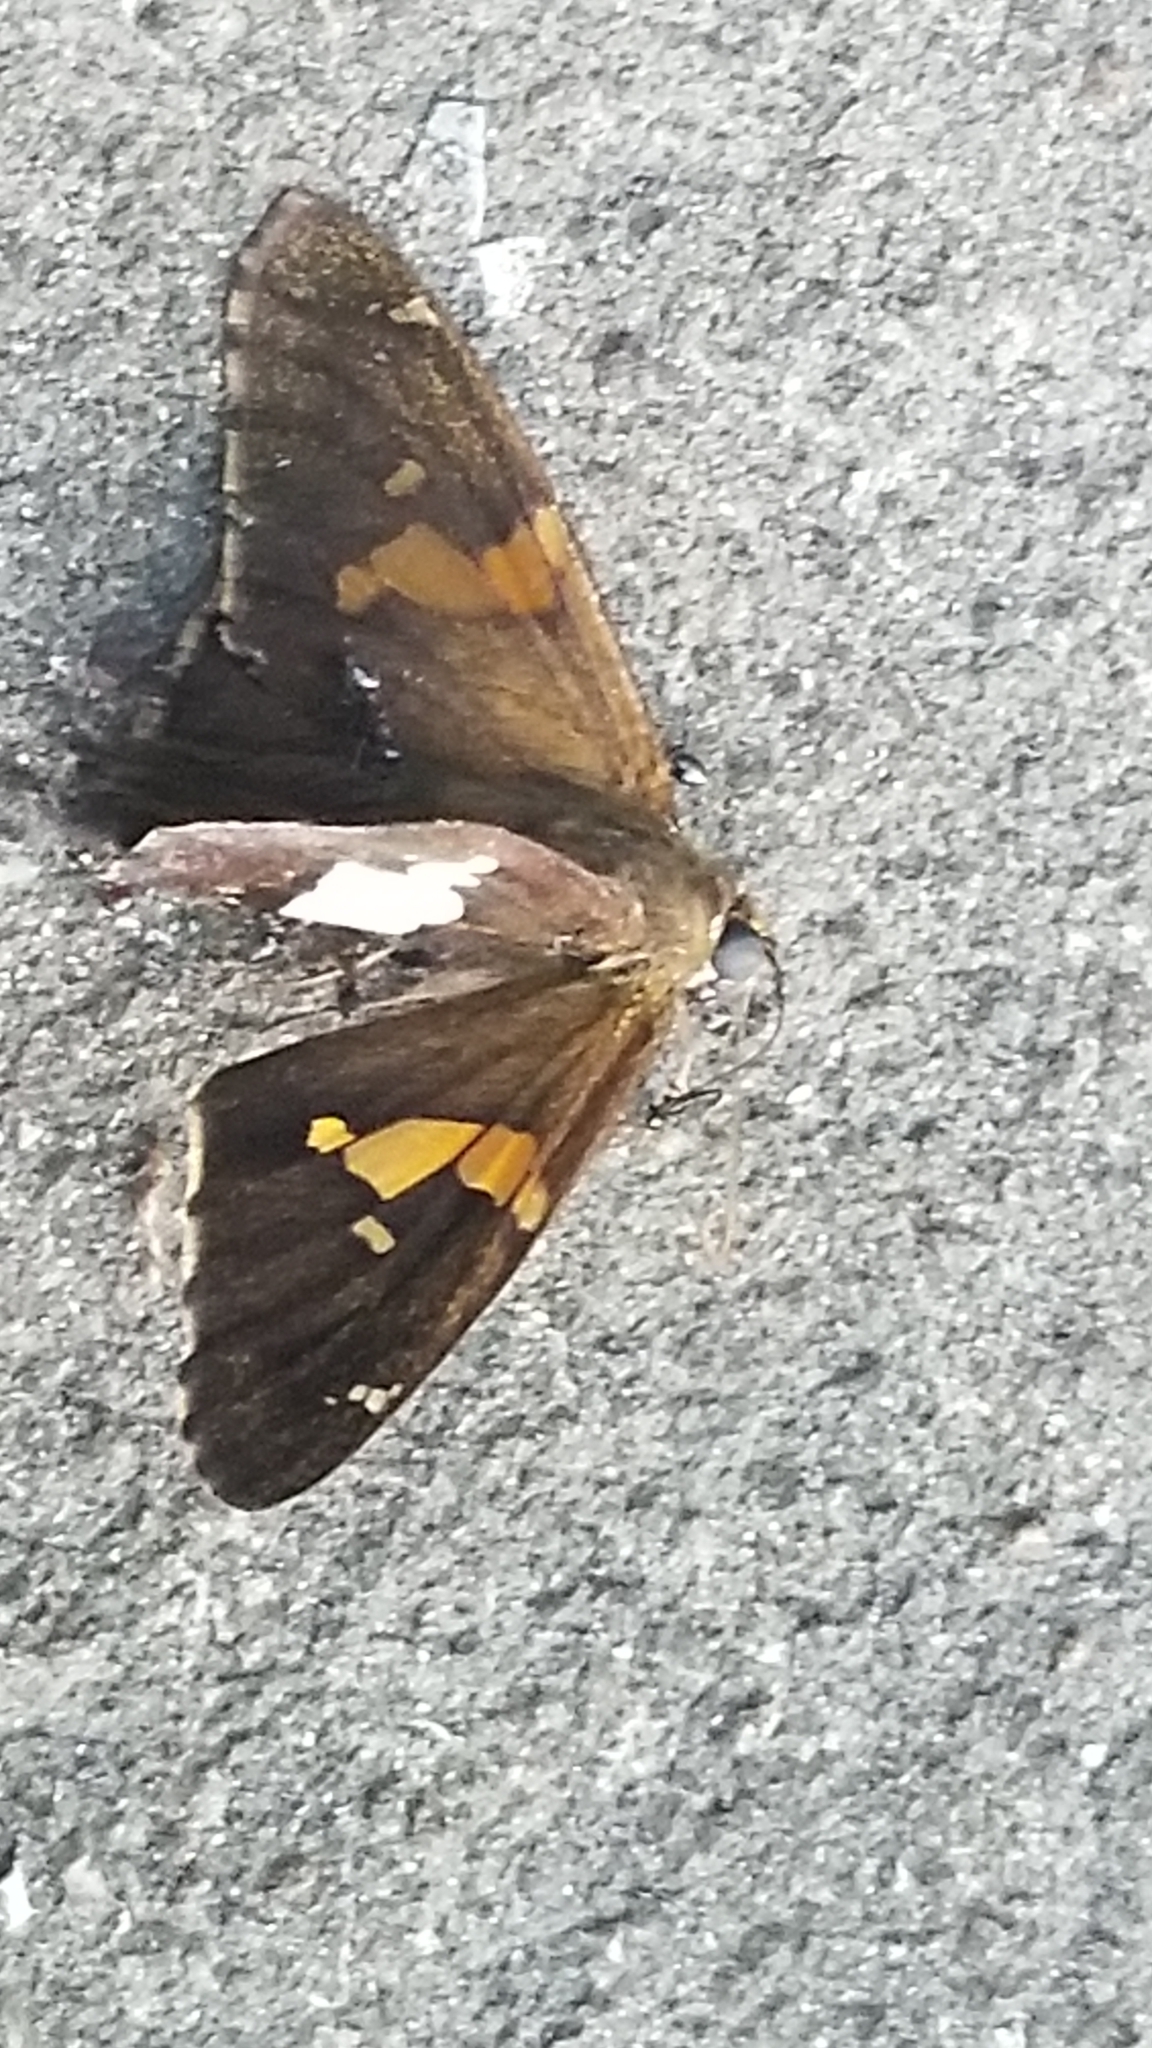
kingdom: Animalia
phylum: Arthropoda
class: Insecta
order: Lepidoptera
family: Hesperiidae
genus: Epargyreus
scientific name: Epargyreus clarus
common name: Silver-spotted skipper
